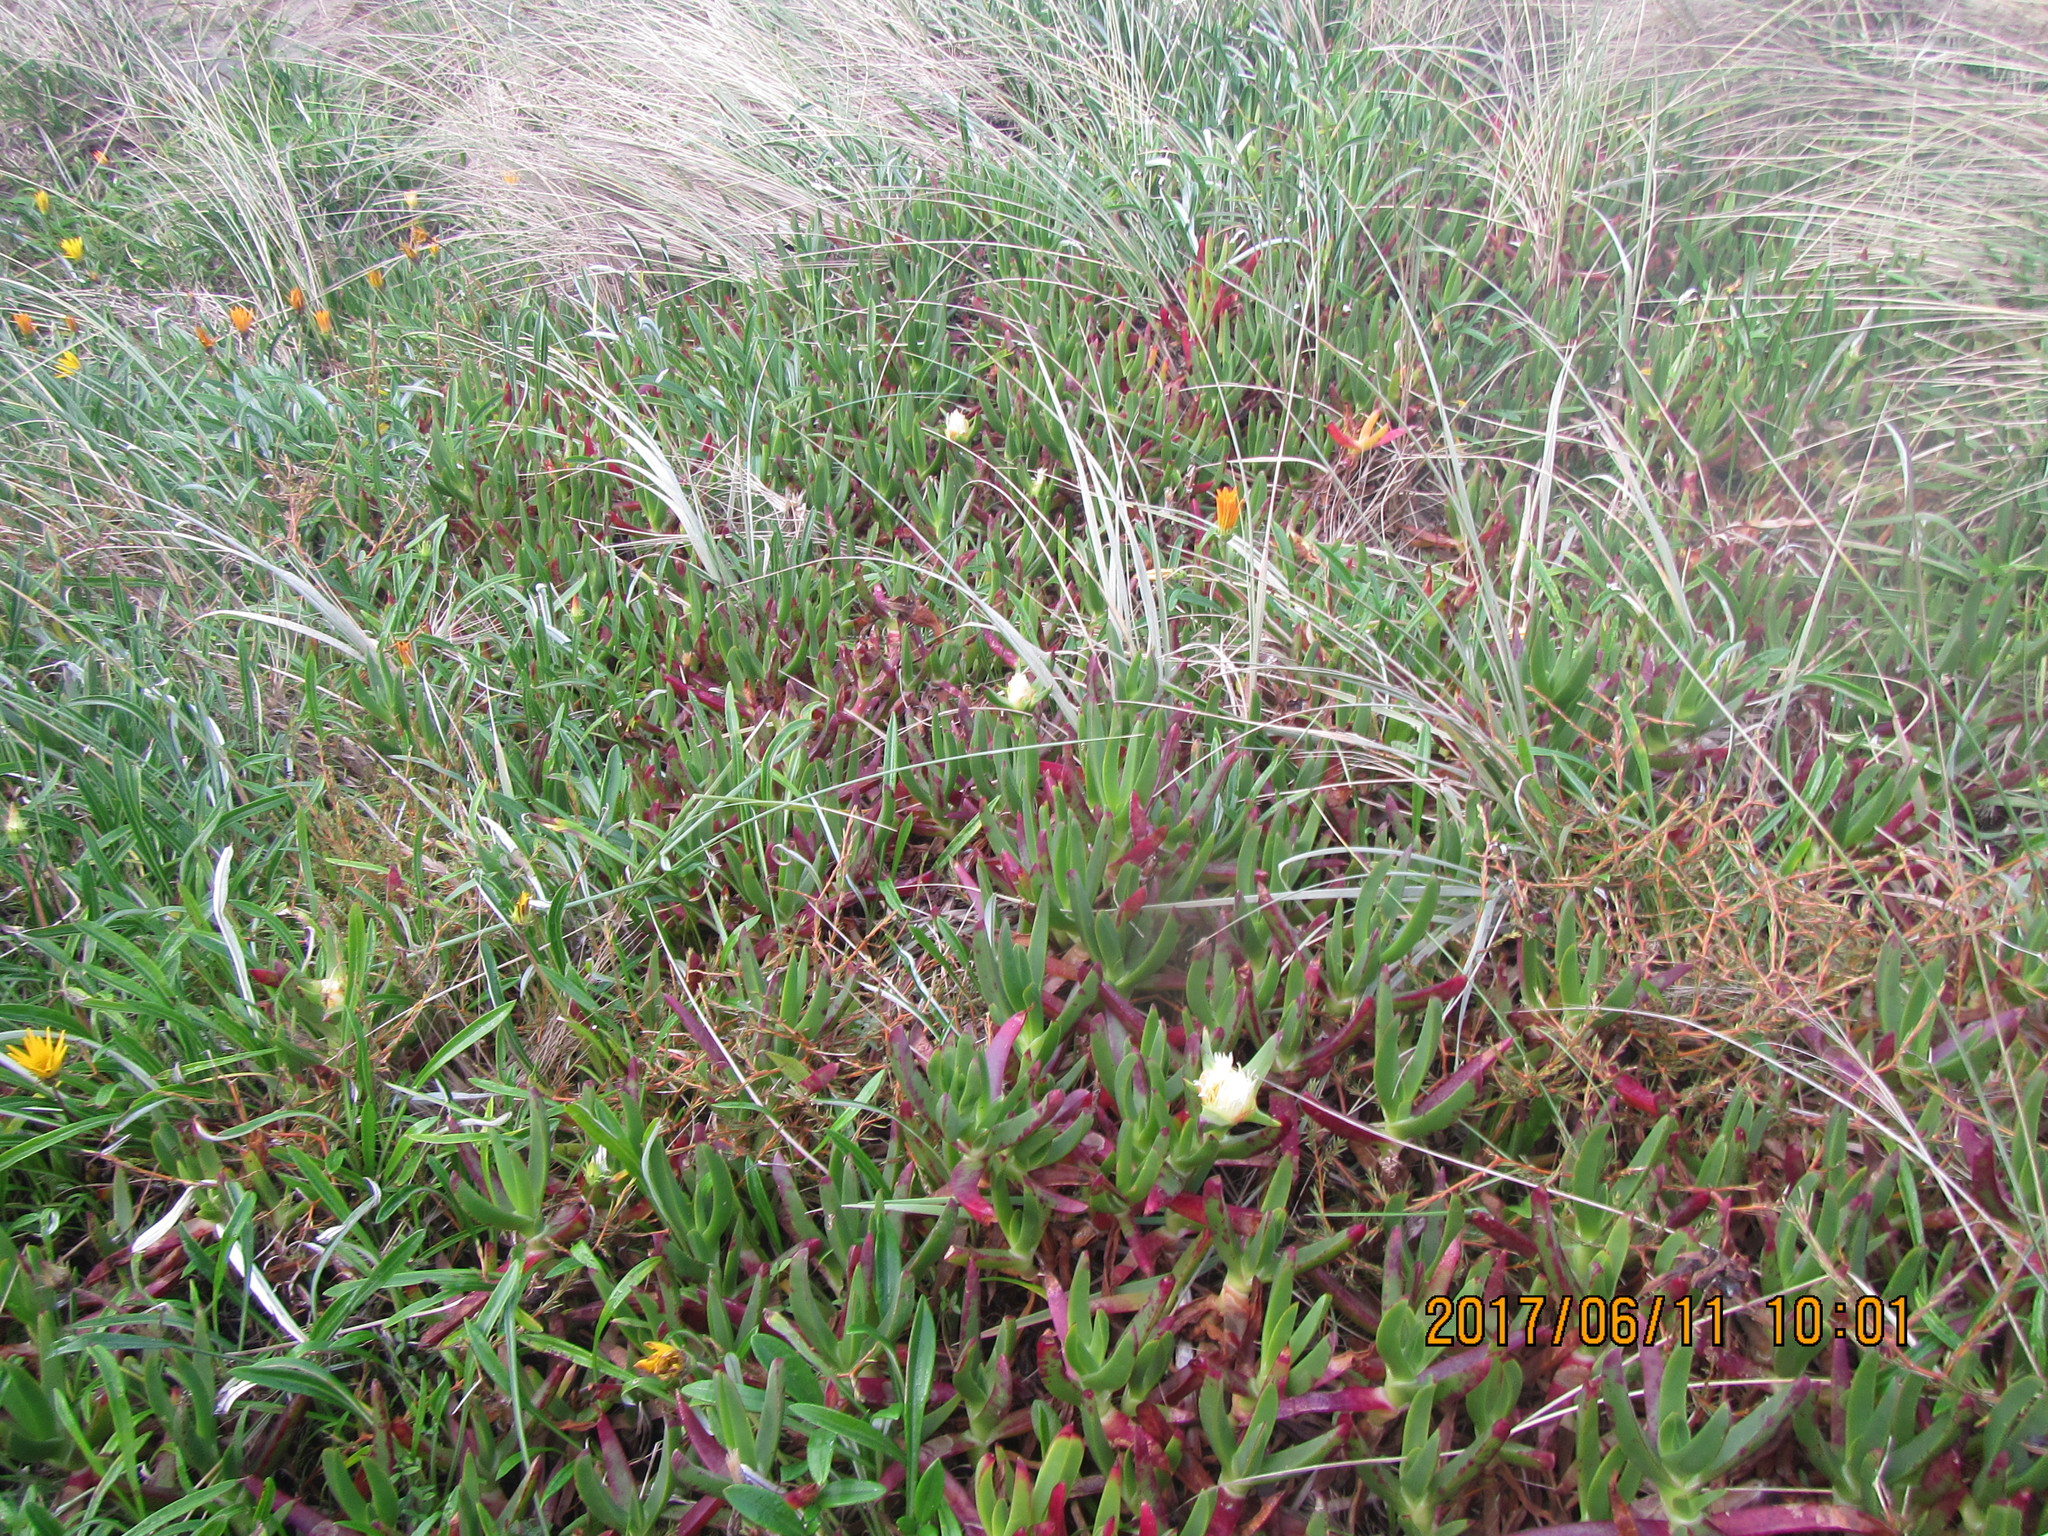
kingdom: Plantae
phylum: Tracheophyta
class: Magnoliopsida
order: Caryophyllales
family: Aizoaceae
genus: Carpobrotus
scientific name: Carpobrotus edulis
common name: Hottentot-fig
